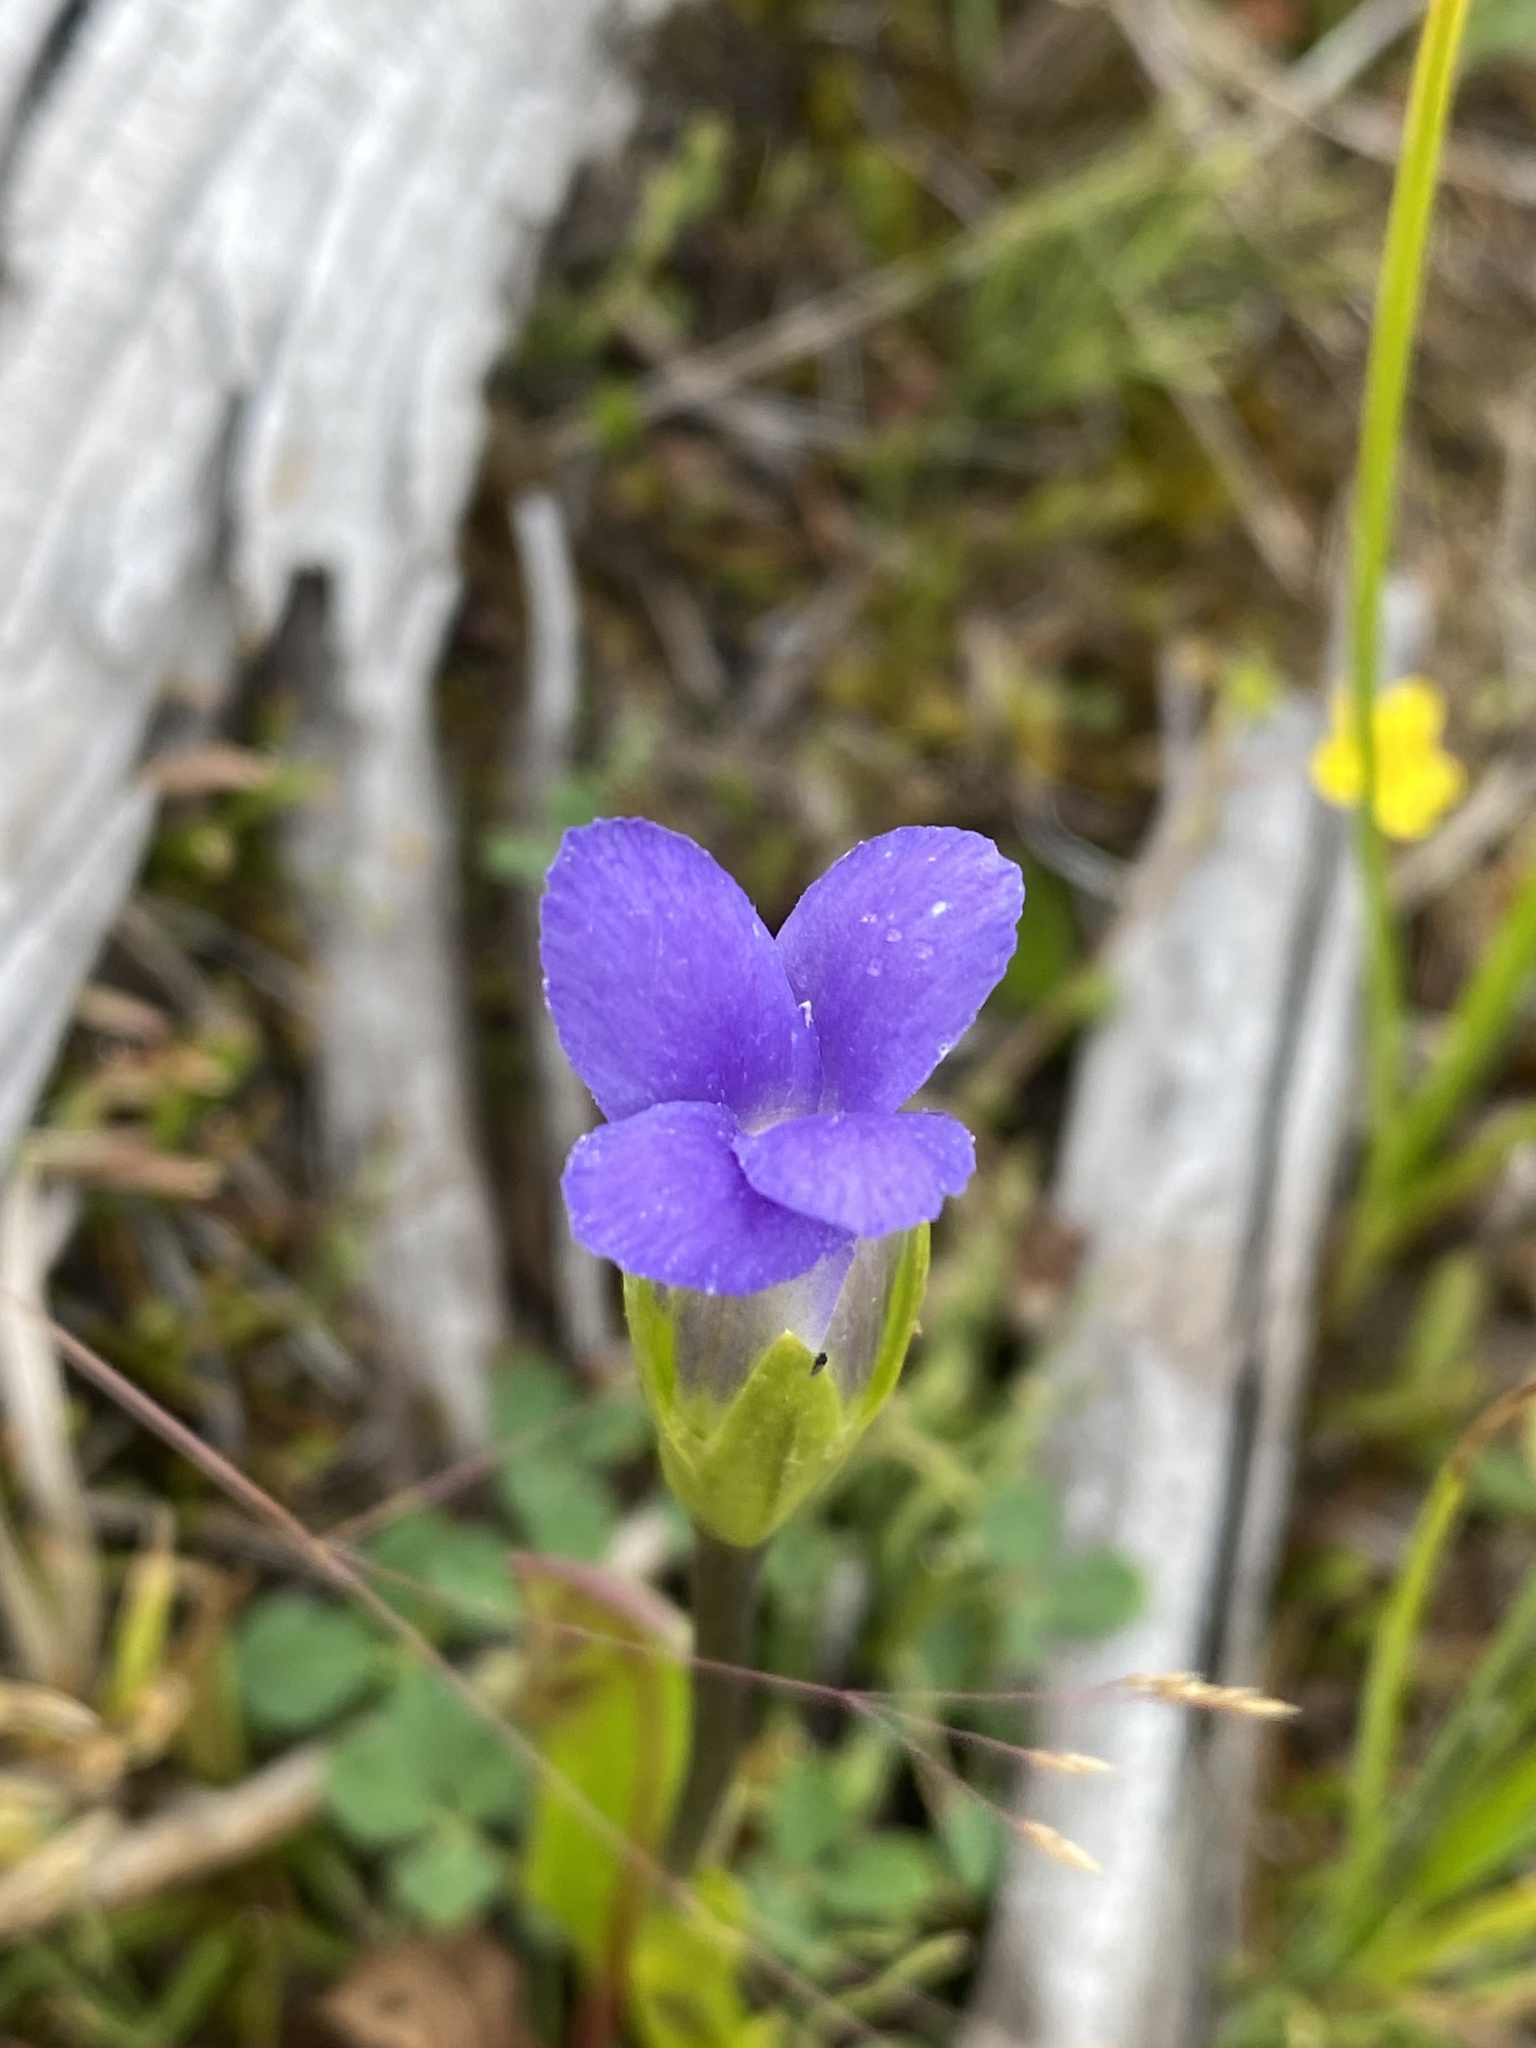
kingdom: Plantae
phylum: Tracheophyta
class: Magnoliopsida
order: Gentianales
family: Gentianaceae
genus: Gentianopsis
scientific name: Gentianopsis simplex
